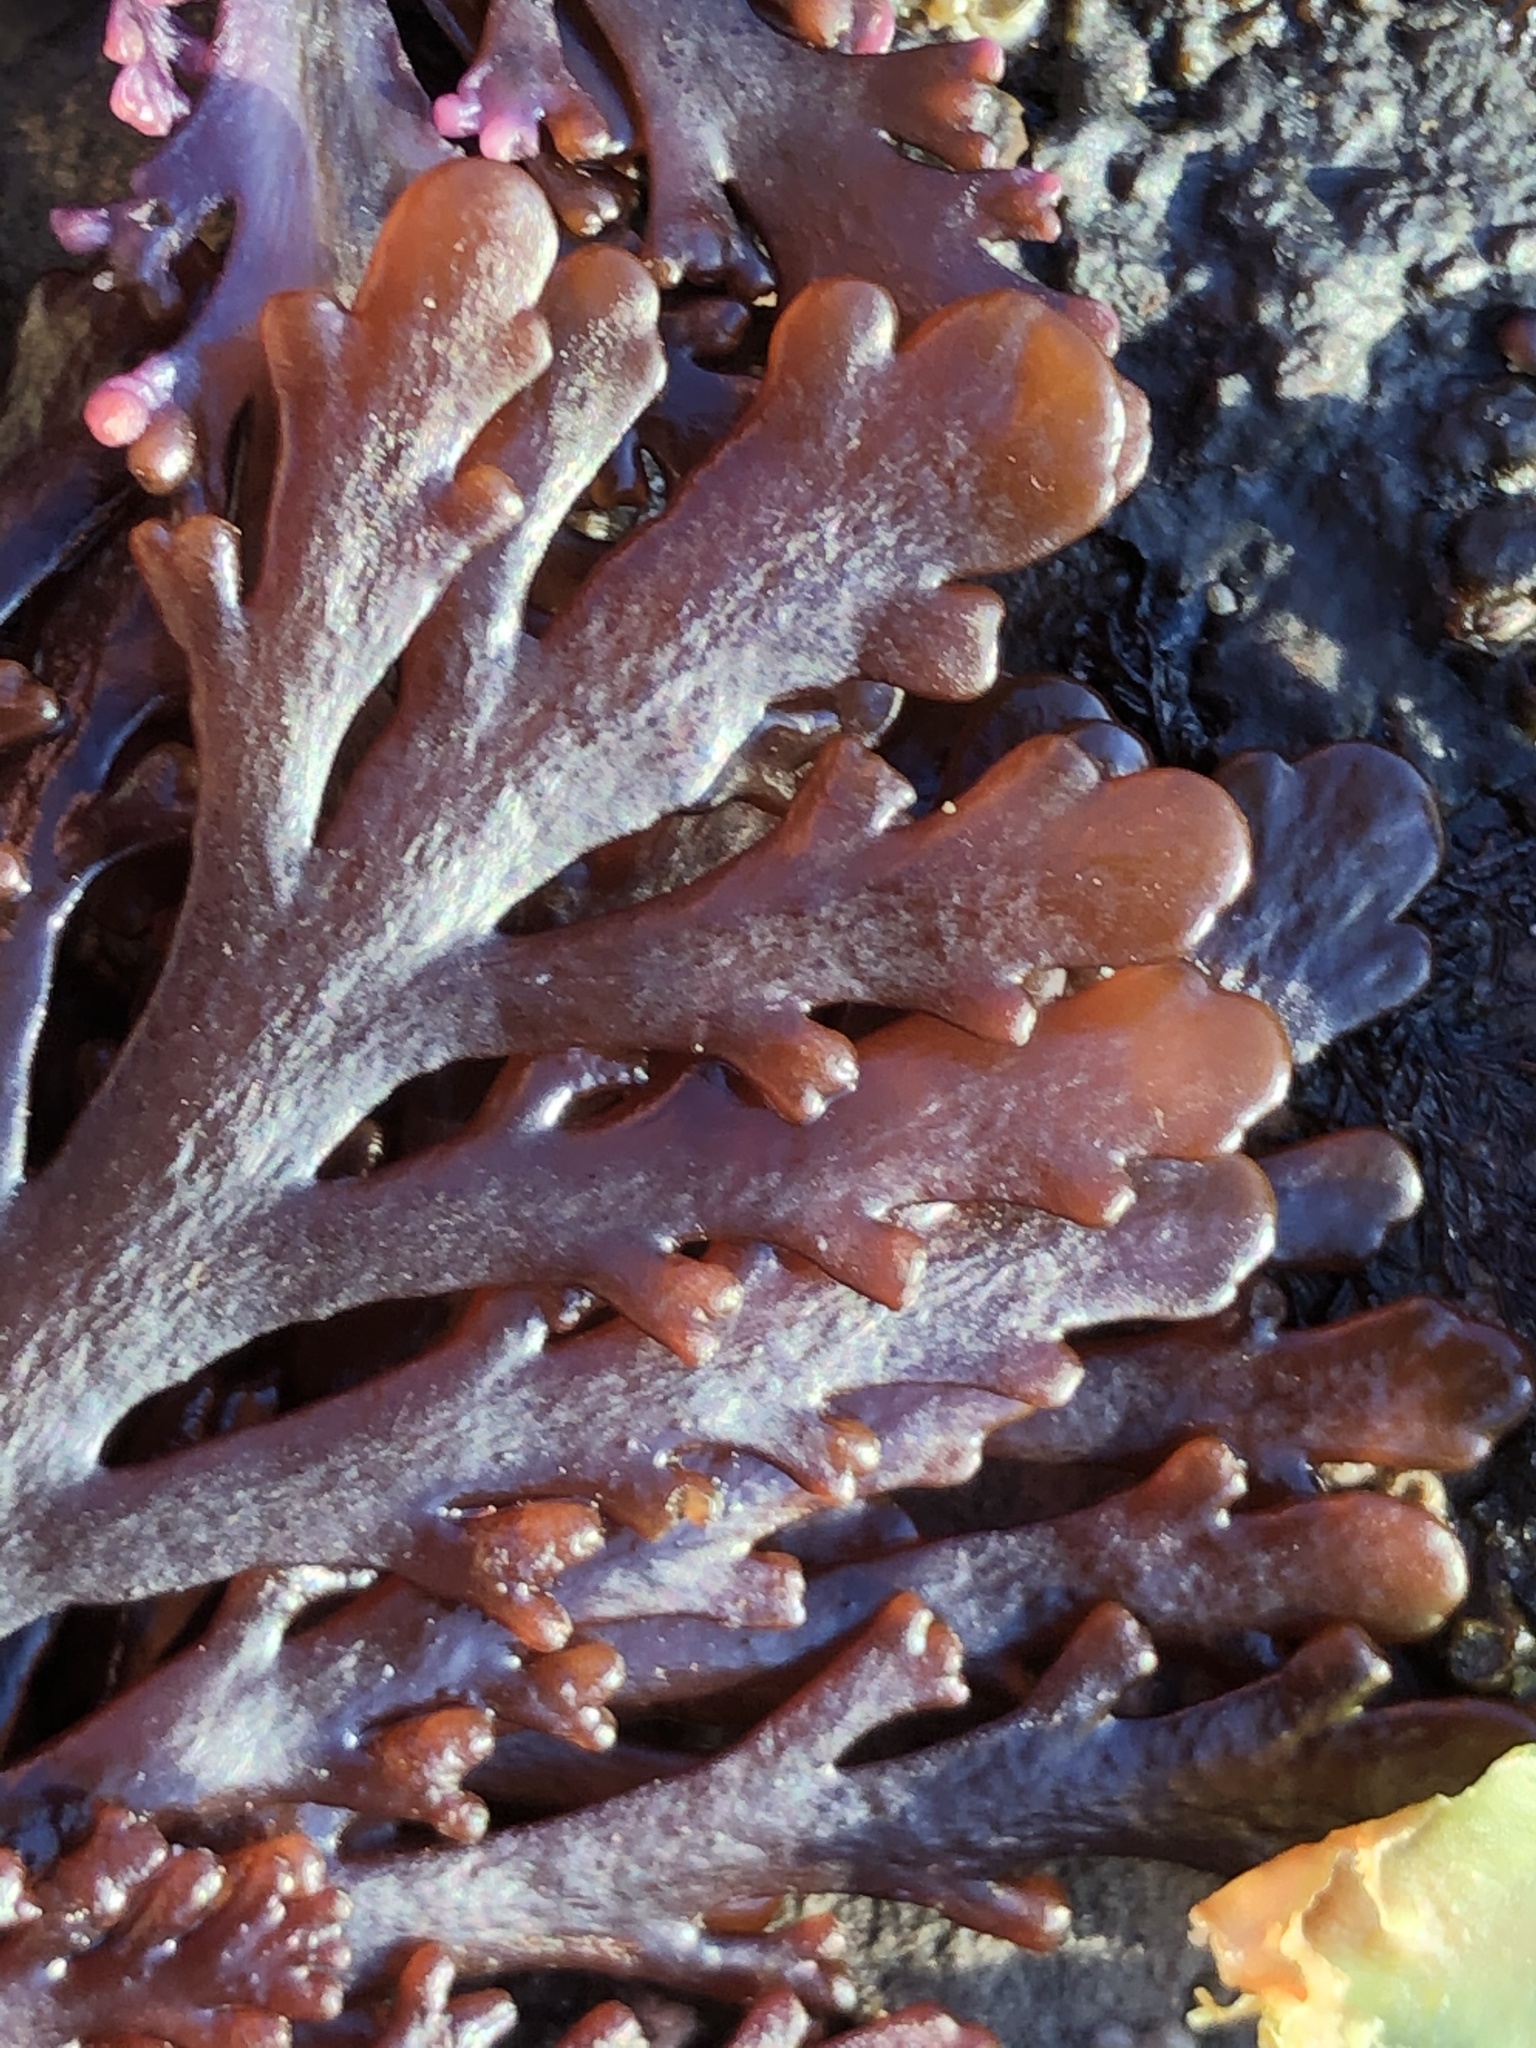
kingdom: Plantae
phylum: Rhodophyta
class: Florideophyceae
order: Ceramiales
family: Rhodomelaceae
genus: Osmundea
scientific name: Osmundea spectabilis
